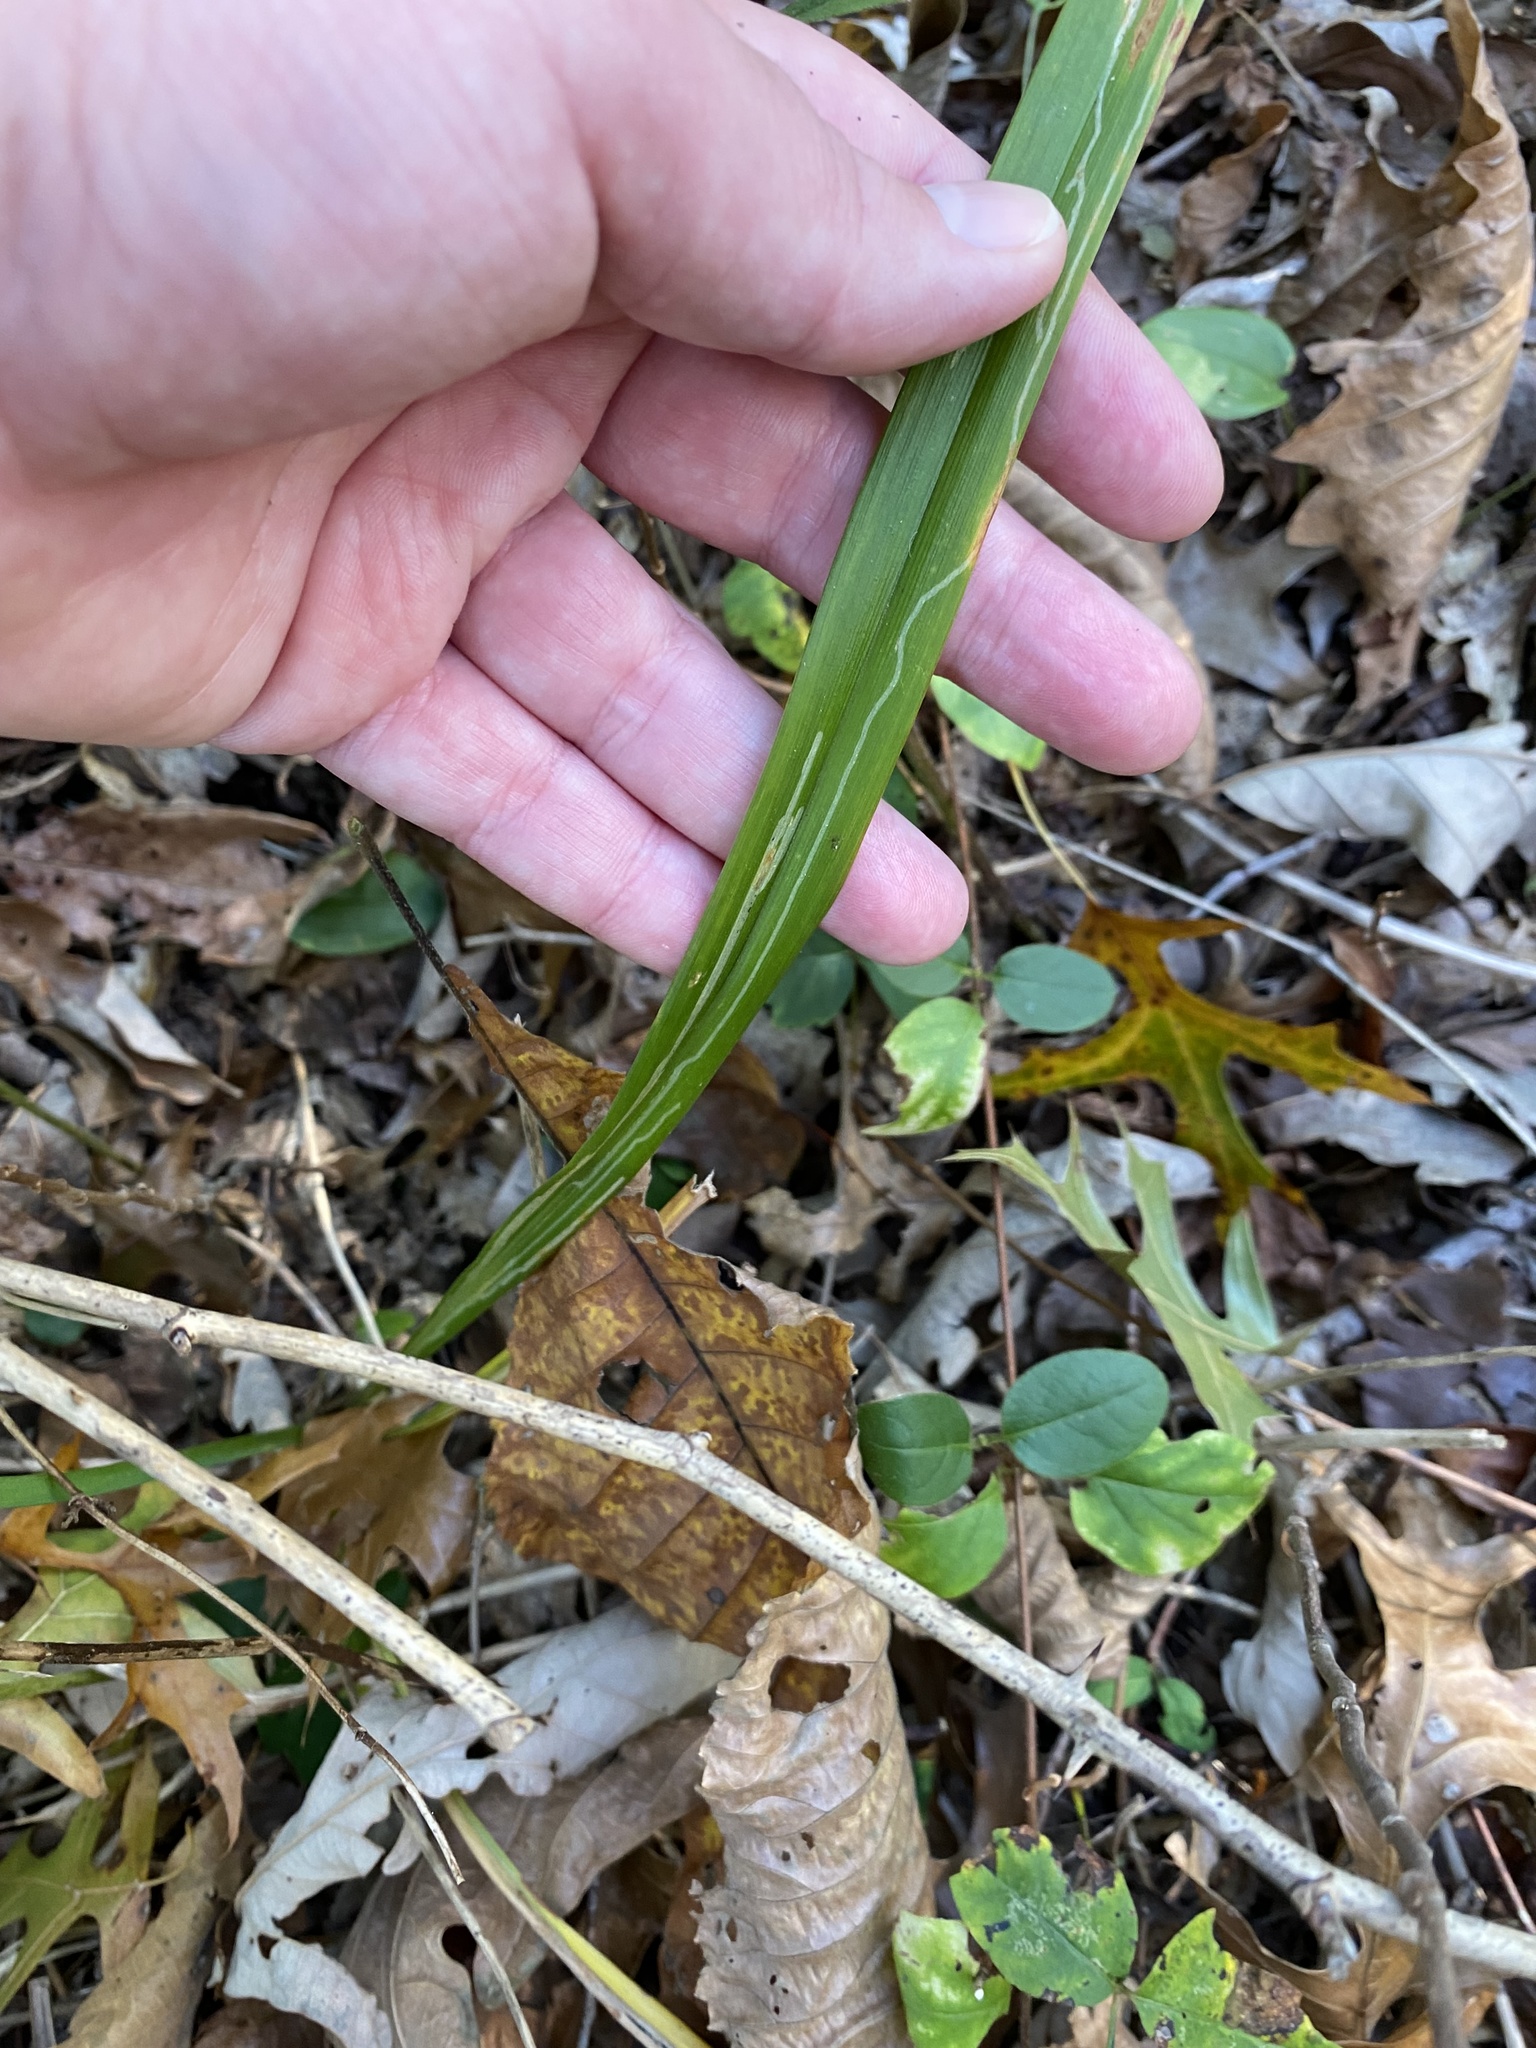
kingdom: Animalia
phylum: Arthropoda
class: Insecta
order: Diptera
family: Agromyzidae
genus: Ophiomyia
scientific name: Ophiomyia kwansonis
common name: Daylily leafminer
